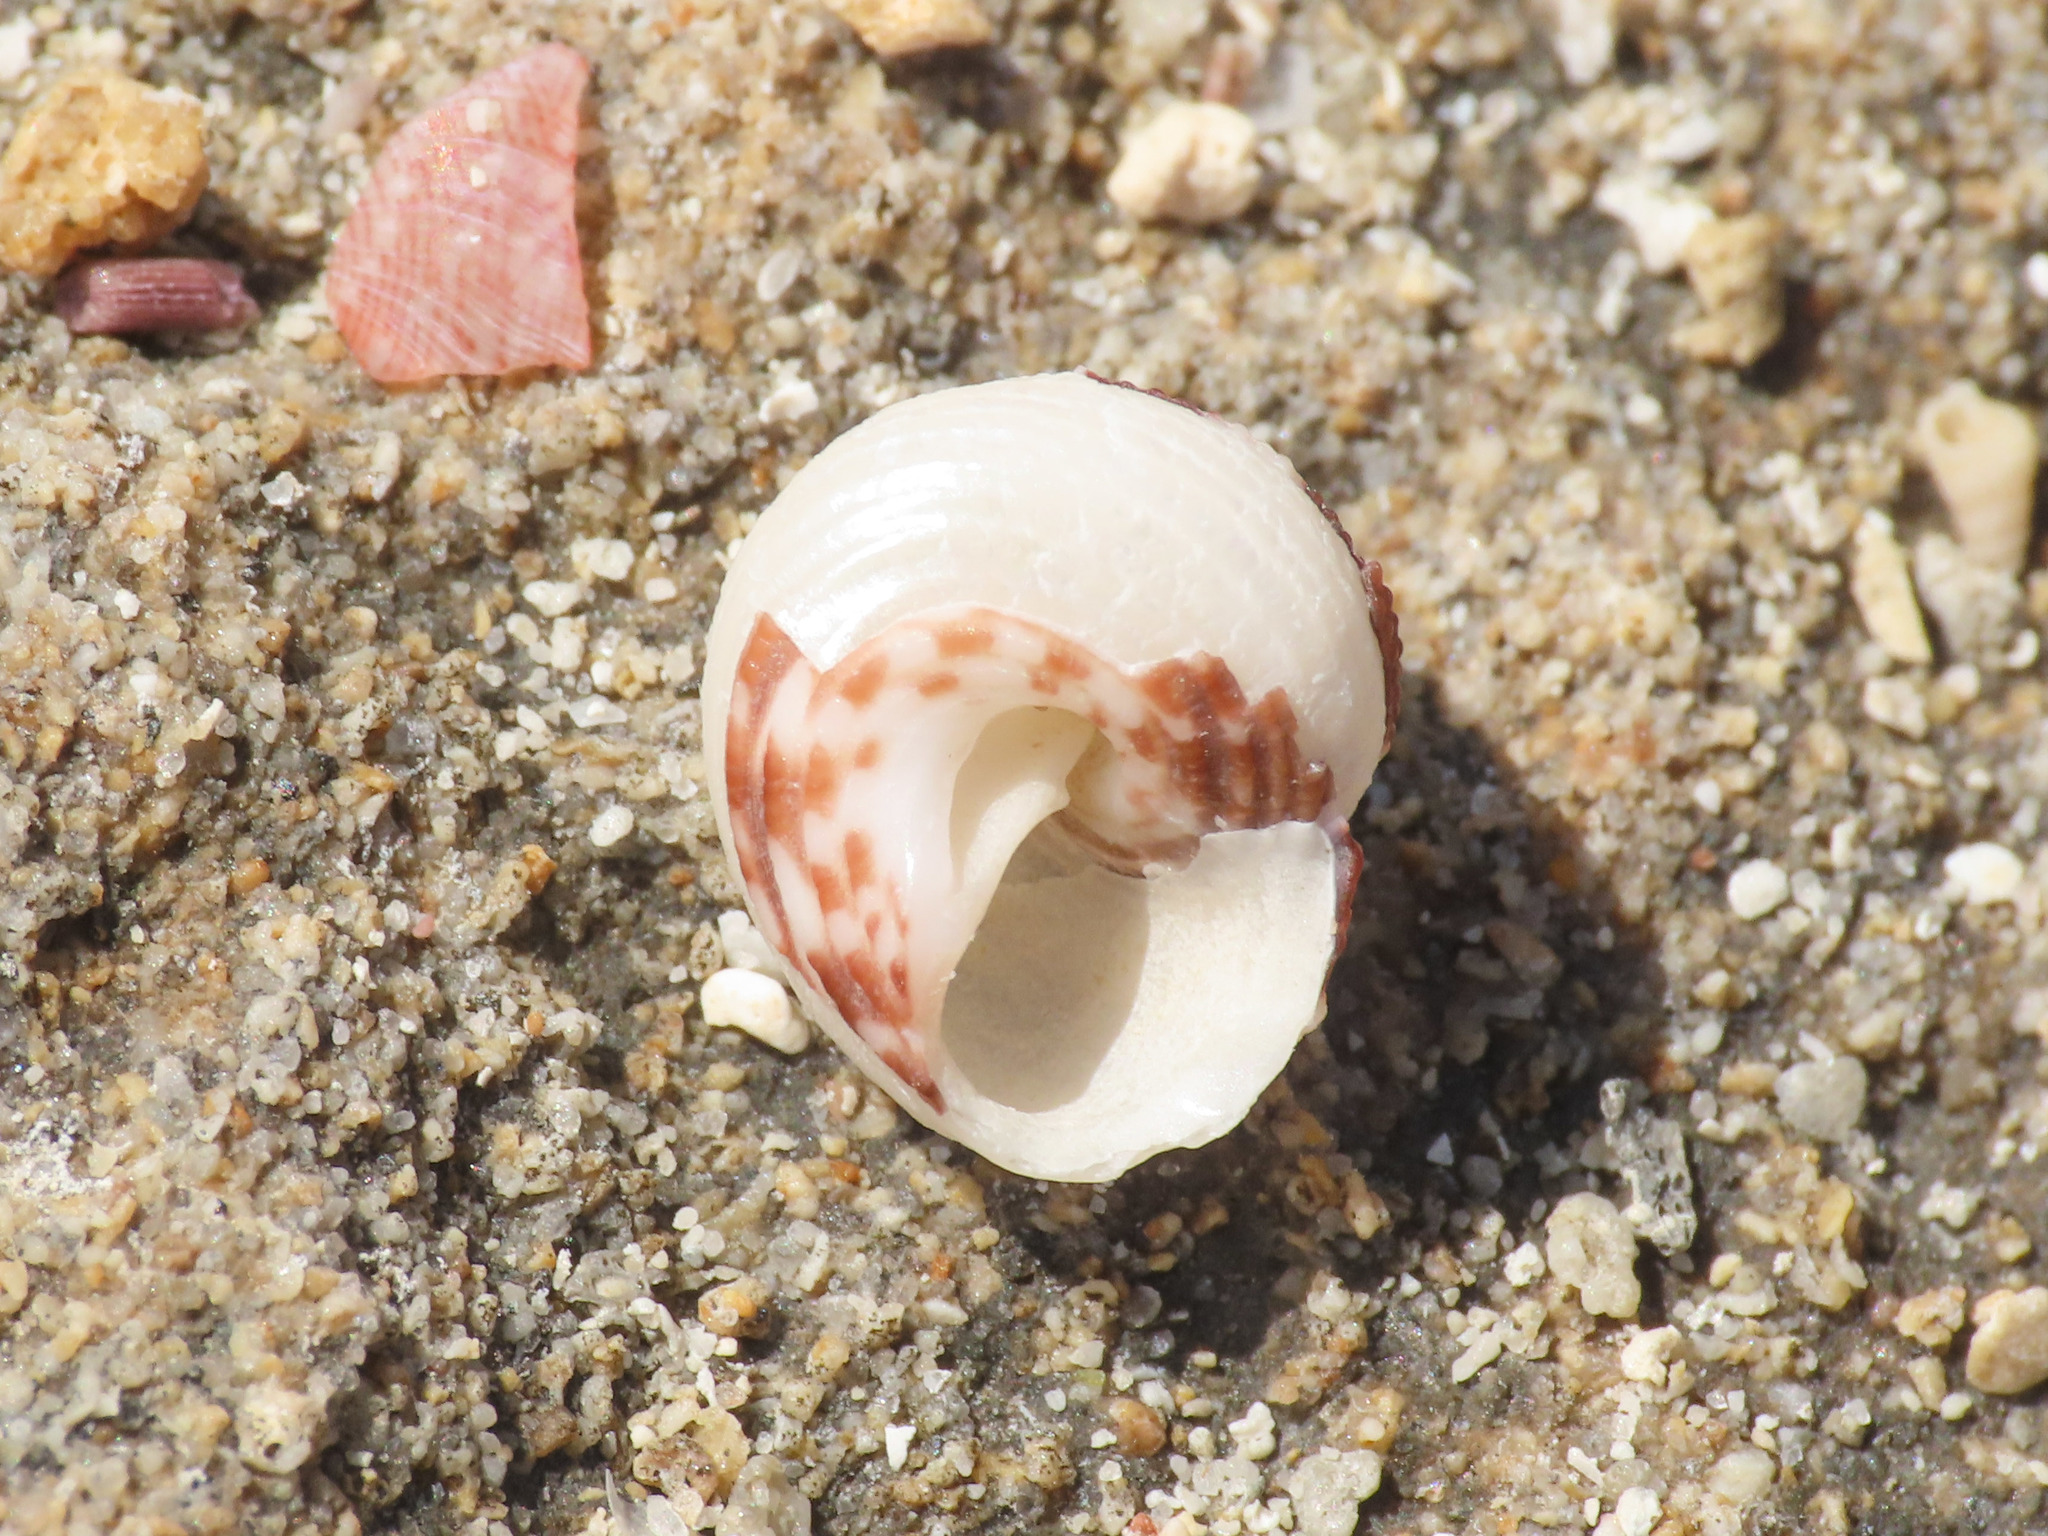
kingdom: Animalia
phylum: Mollusca
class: Gastropoda
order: Trochida
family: Trochidae
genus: Clanculus
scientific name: Clanculus cruciatus
